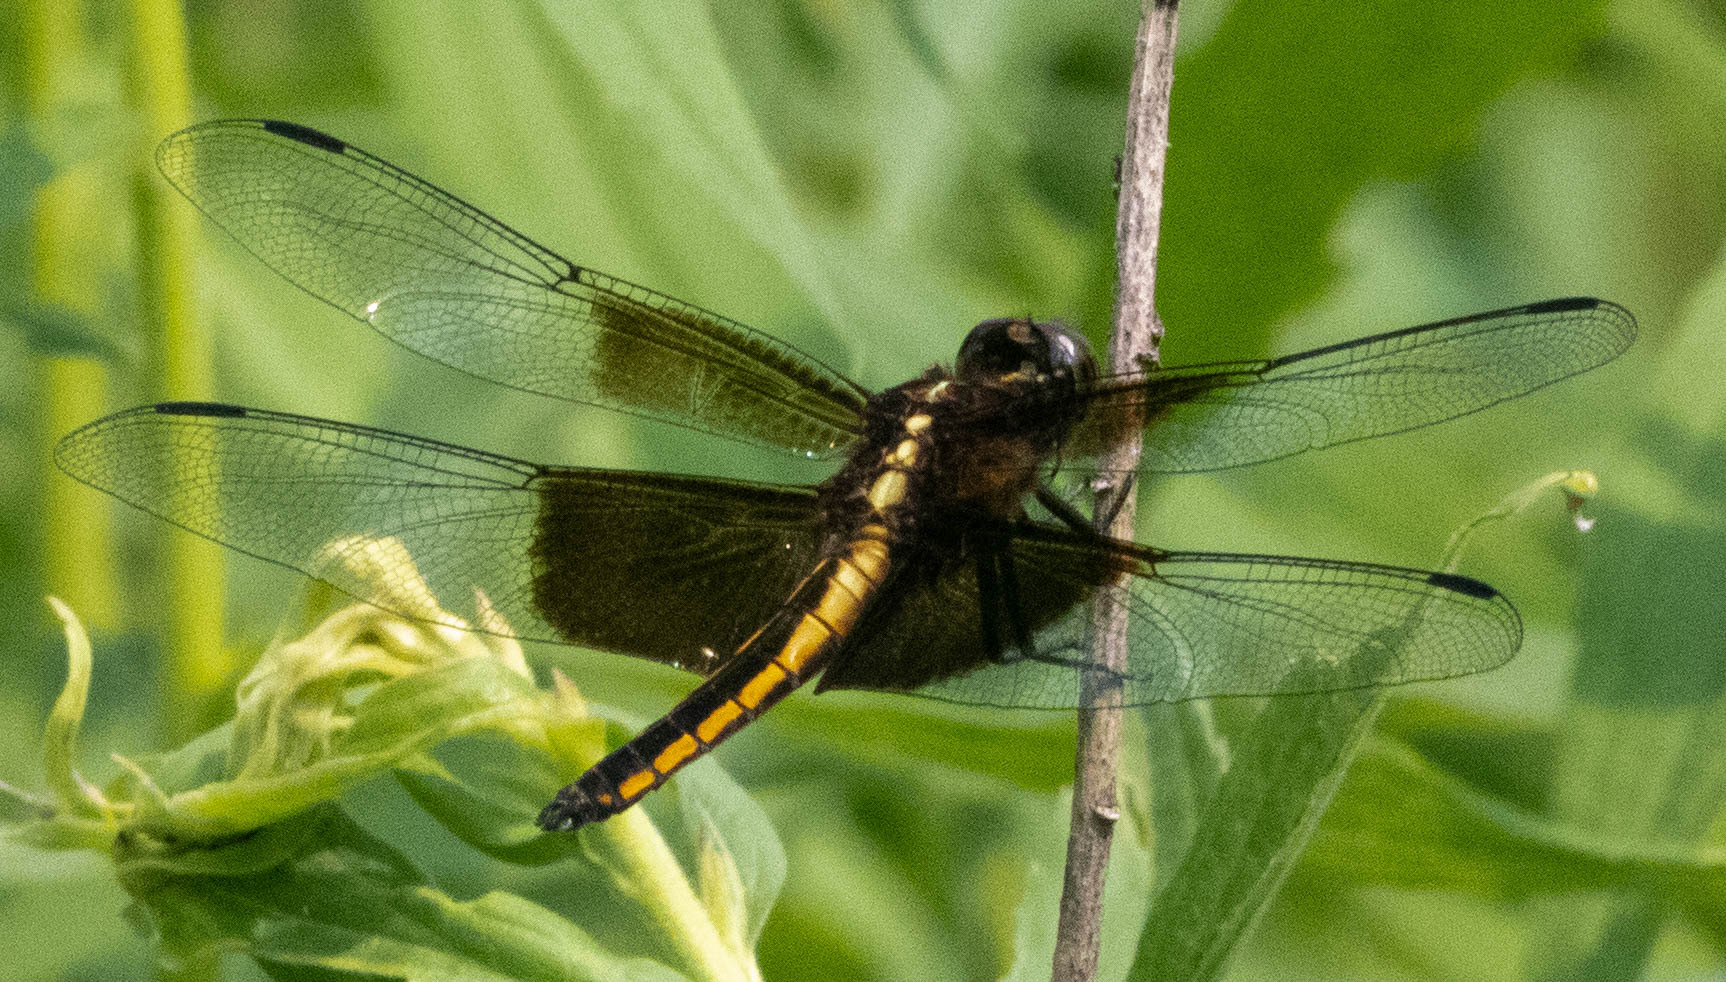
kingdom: Animalia
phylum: Arthropoda
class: Insecta
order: Odonata
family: Libellulidae
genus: Libellula
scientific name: Libellula luctuosa
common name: Widow skimmer
